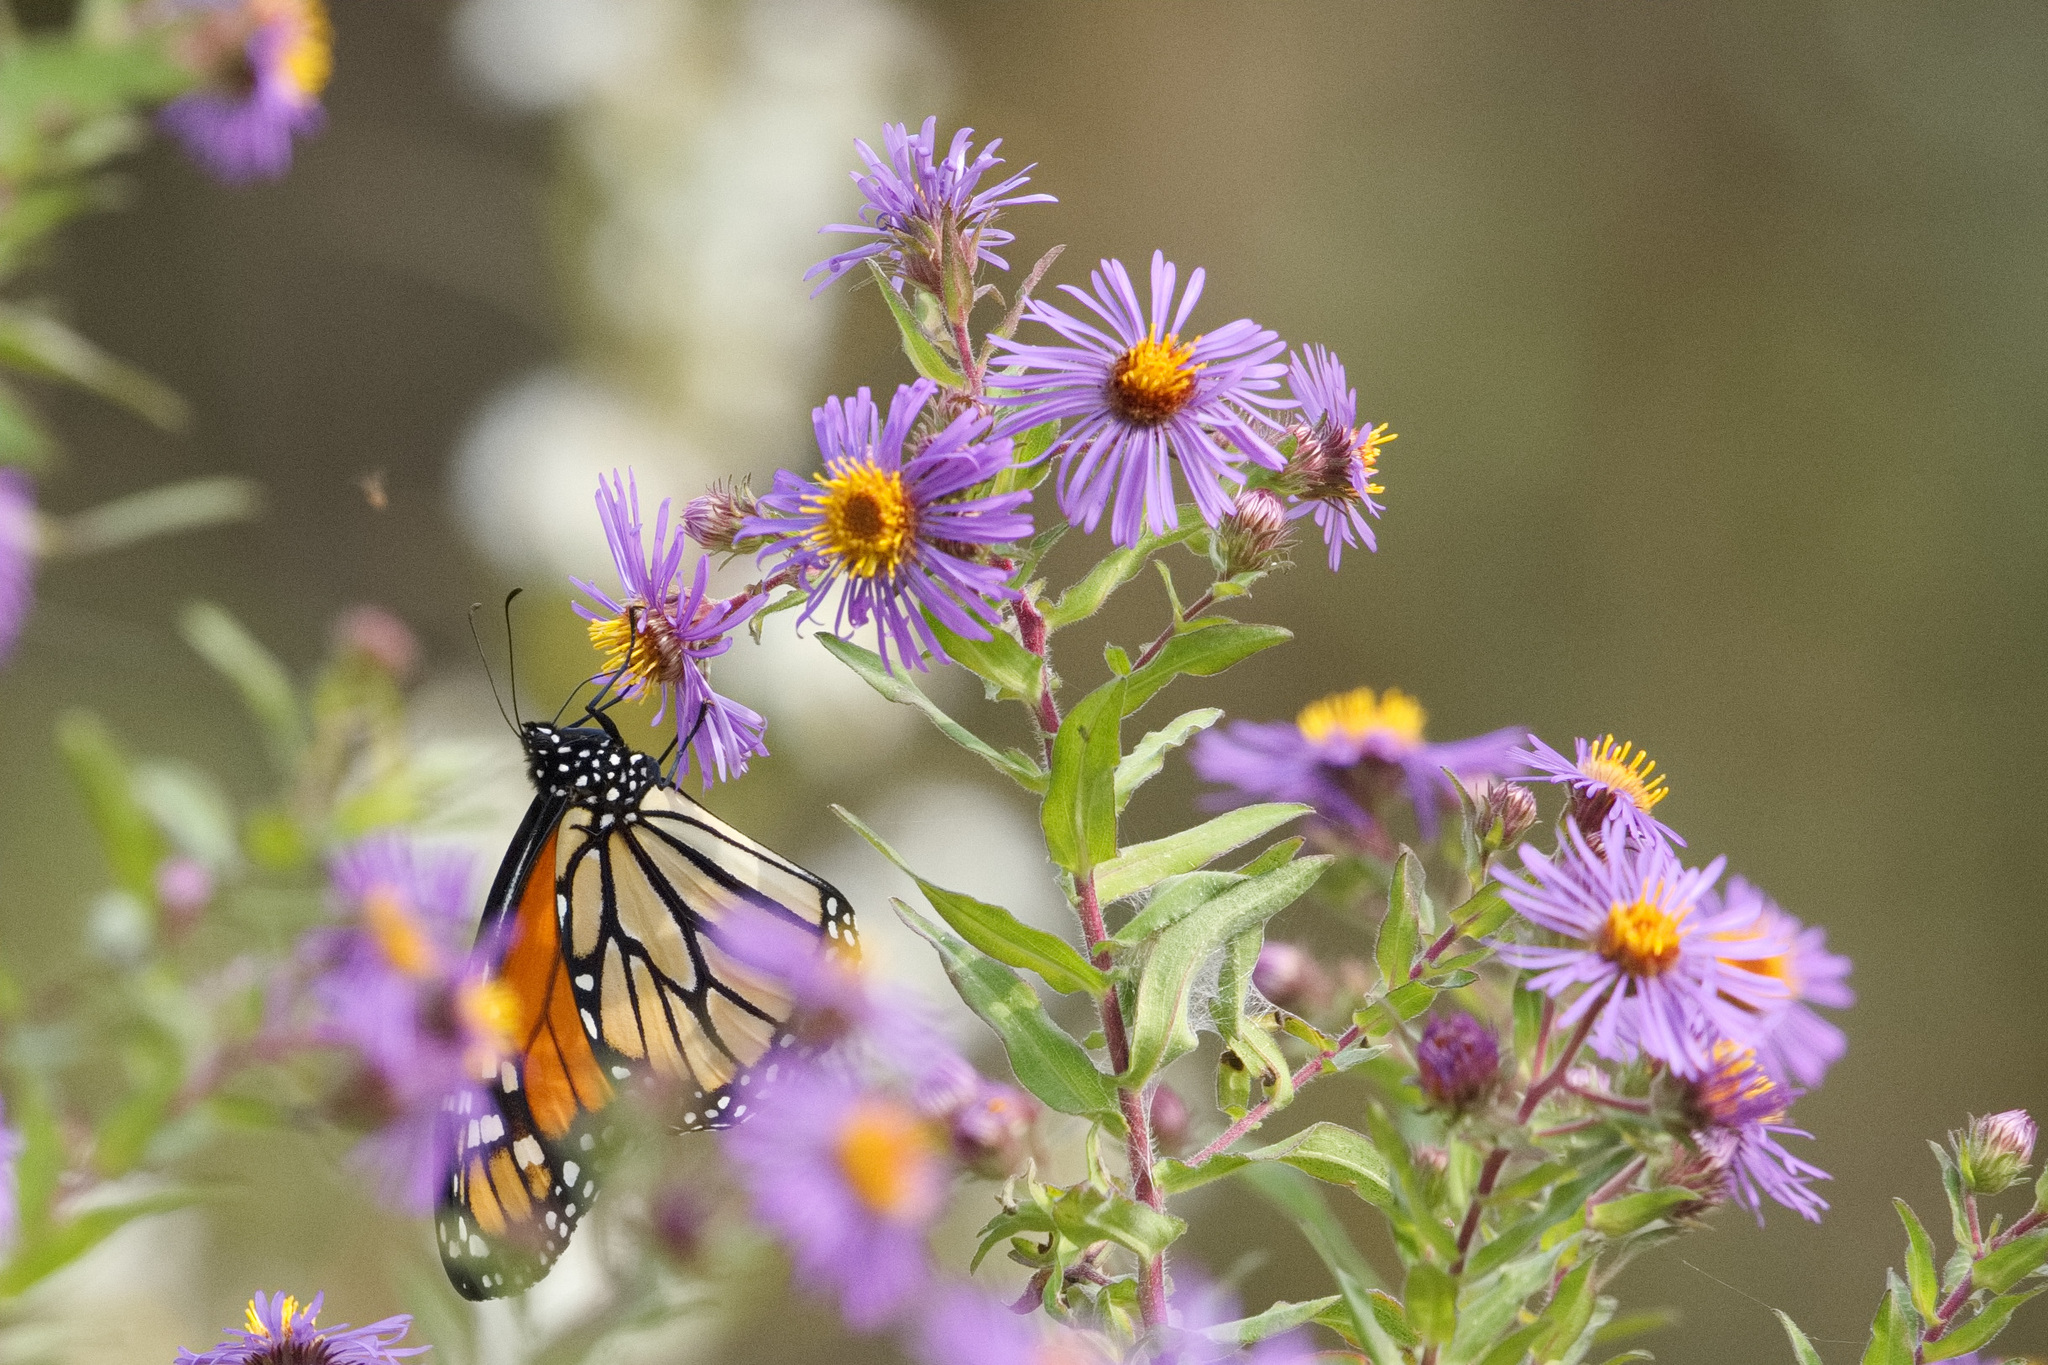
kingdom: Plantae
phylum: Tracheophyta
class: Magnoliopsida
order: Asterales
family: Asteraceae
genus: Symphyotrichum
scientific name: Symphyotrichum novae-angliae
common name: Michaelmas daisy
